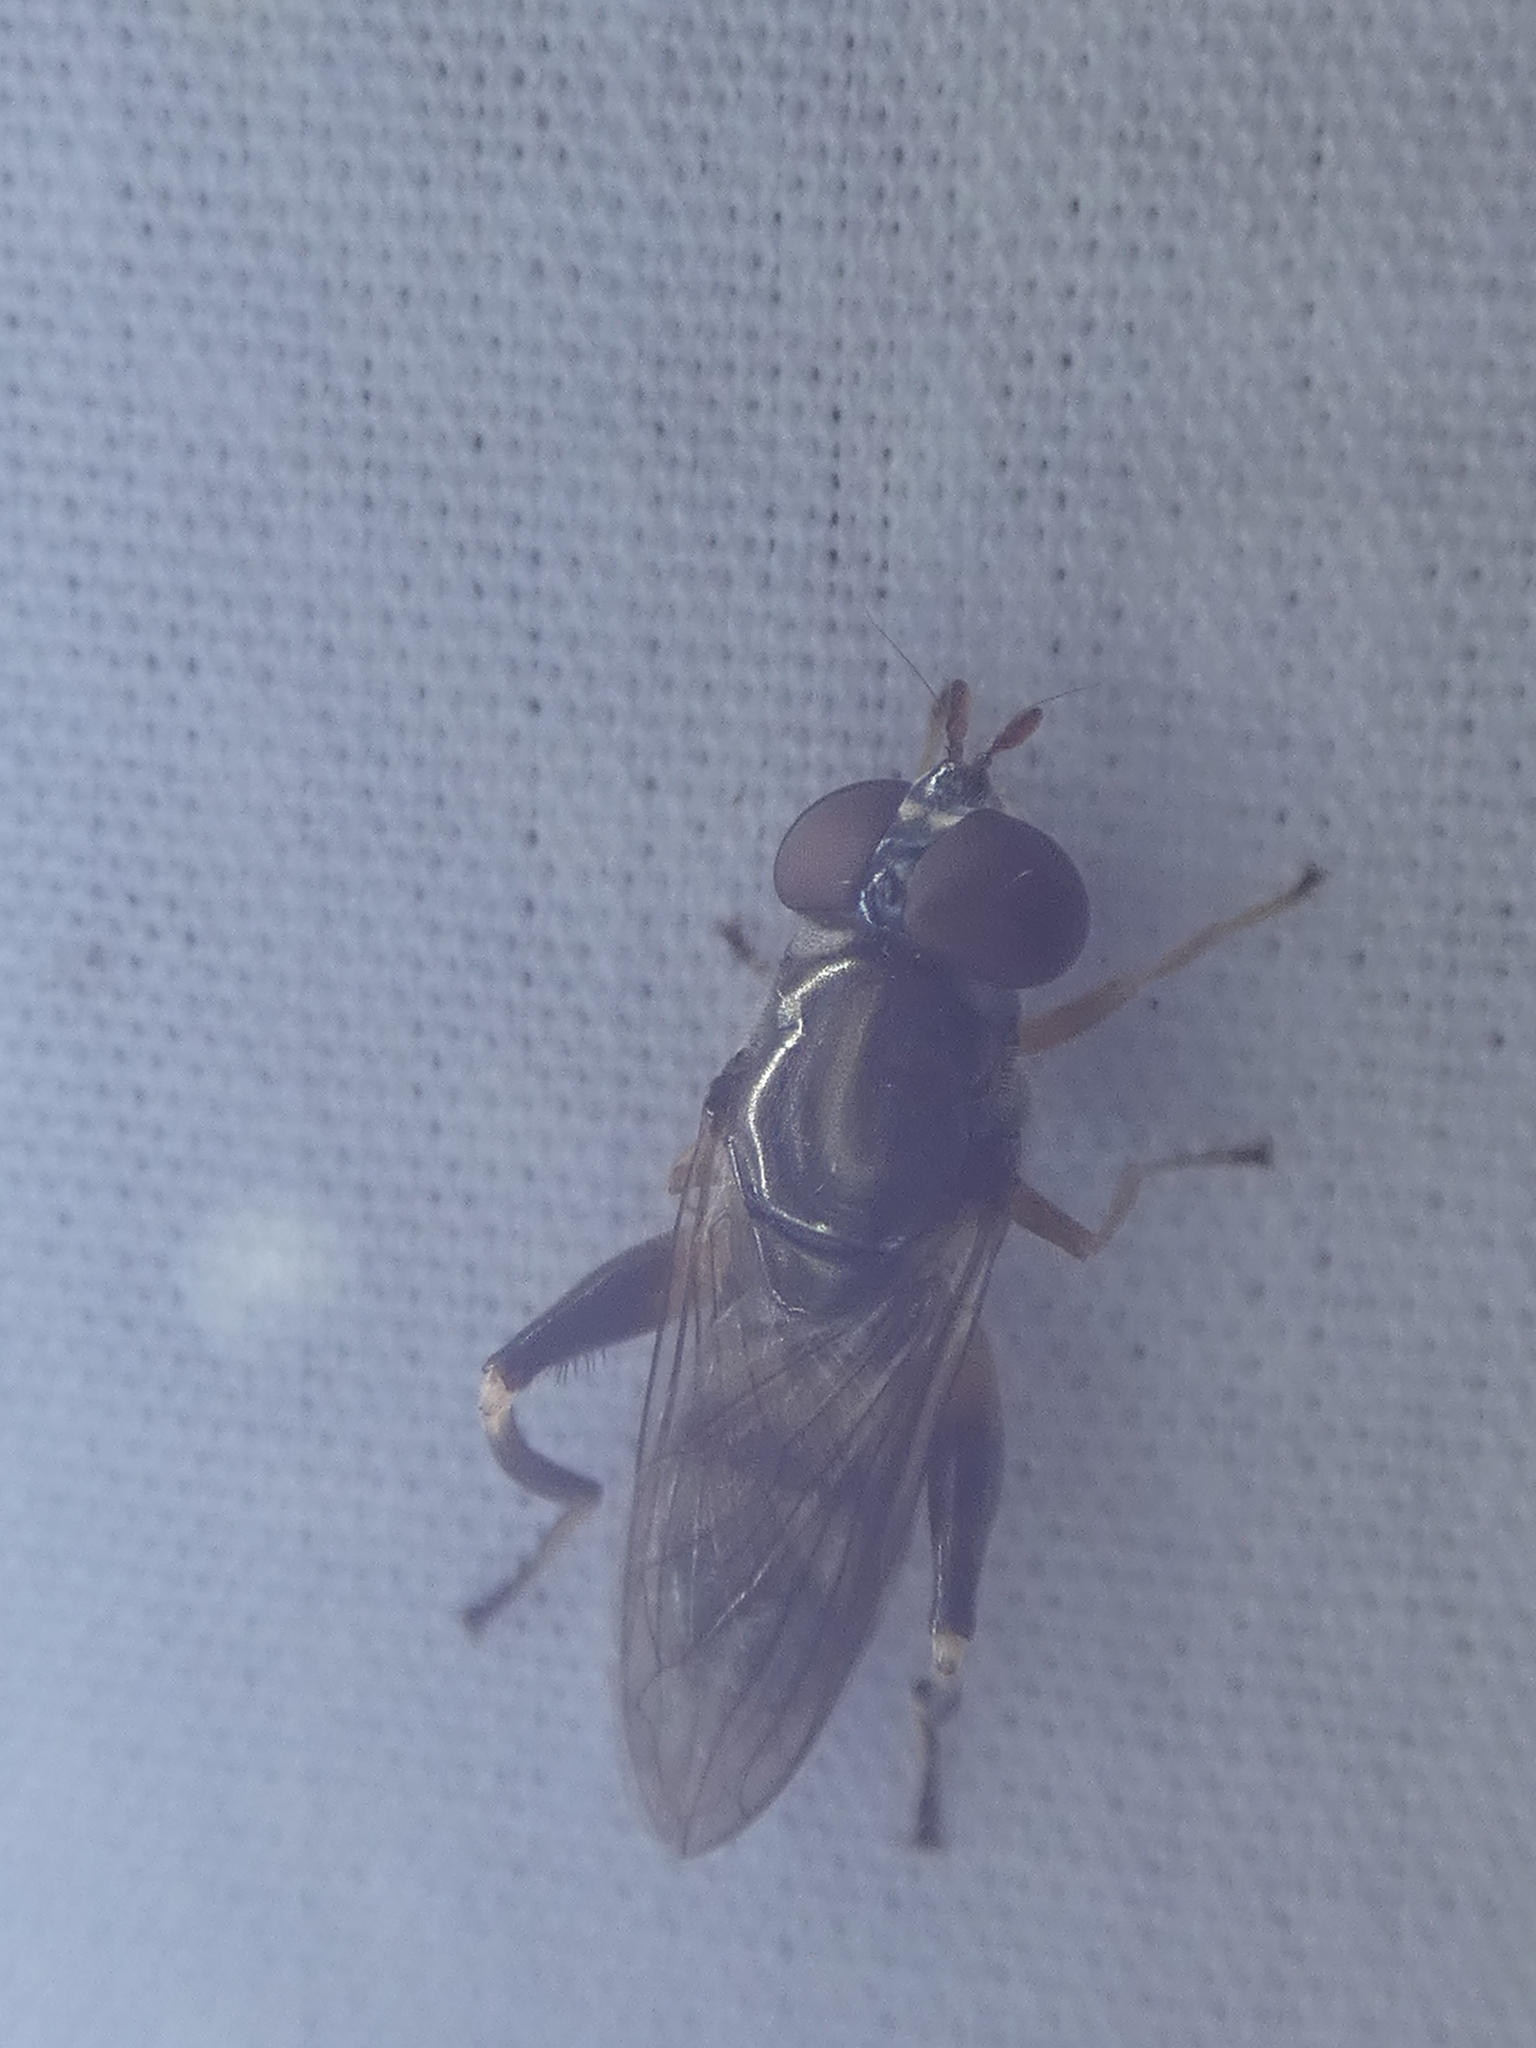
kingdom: Animalia
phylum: Arthropoda
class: Insecta
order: Diptera
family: Syrphidae
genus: Chalcosyrphus
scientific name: Chalcosyrphus metallicus
